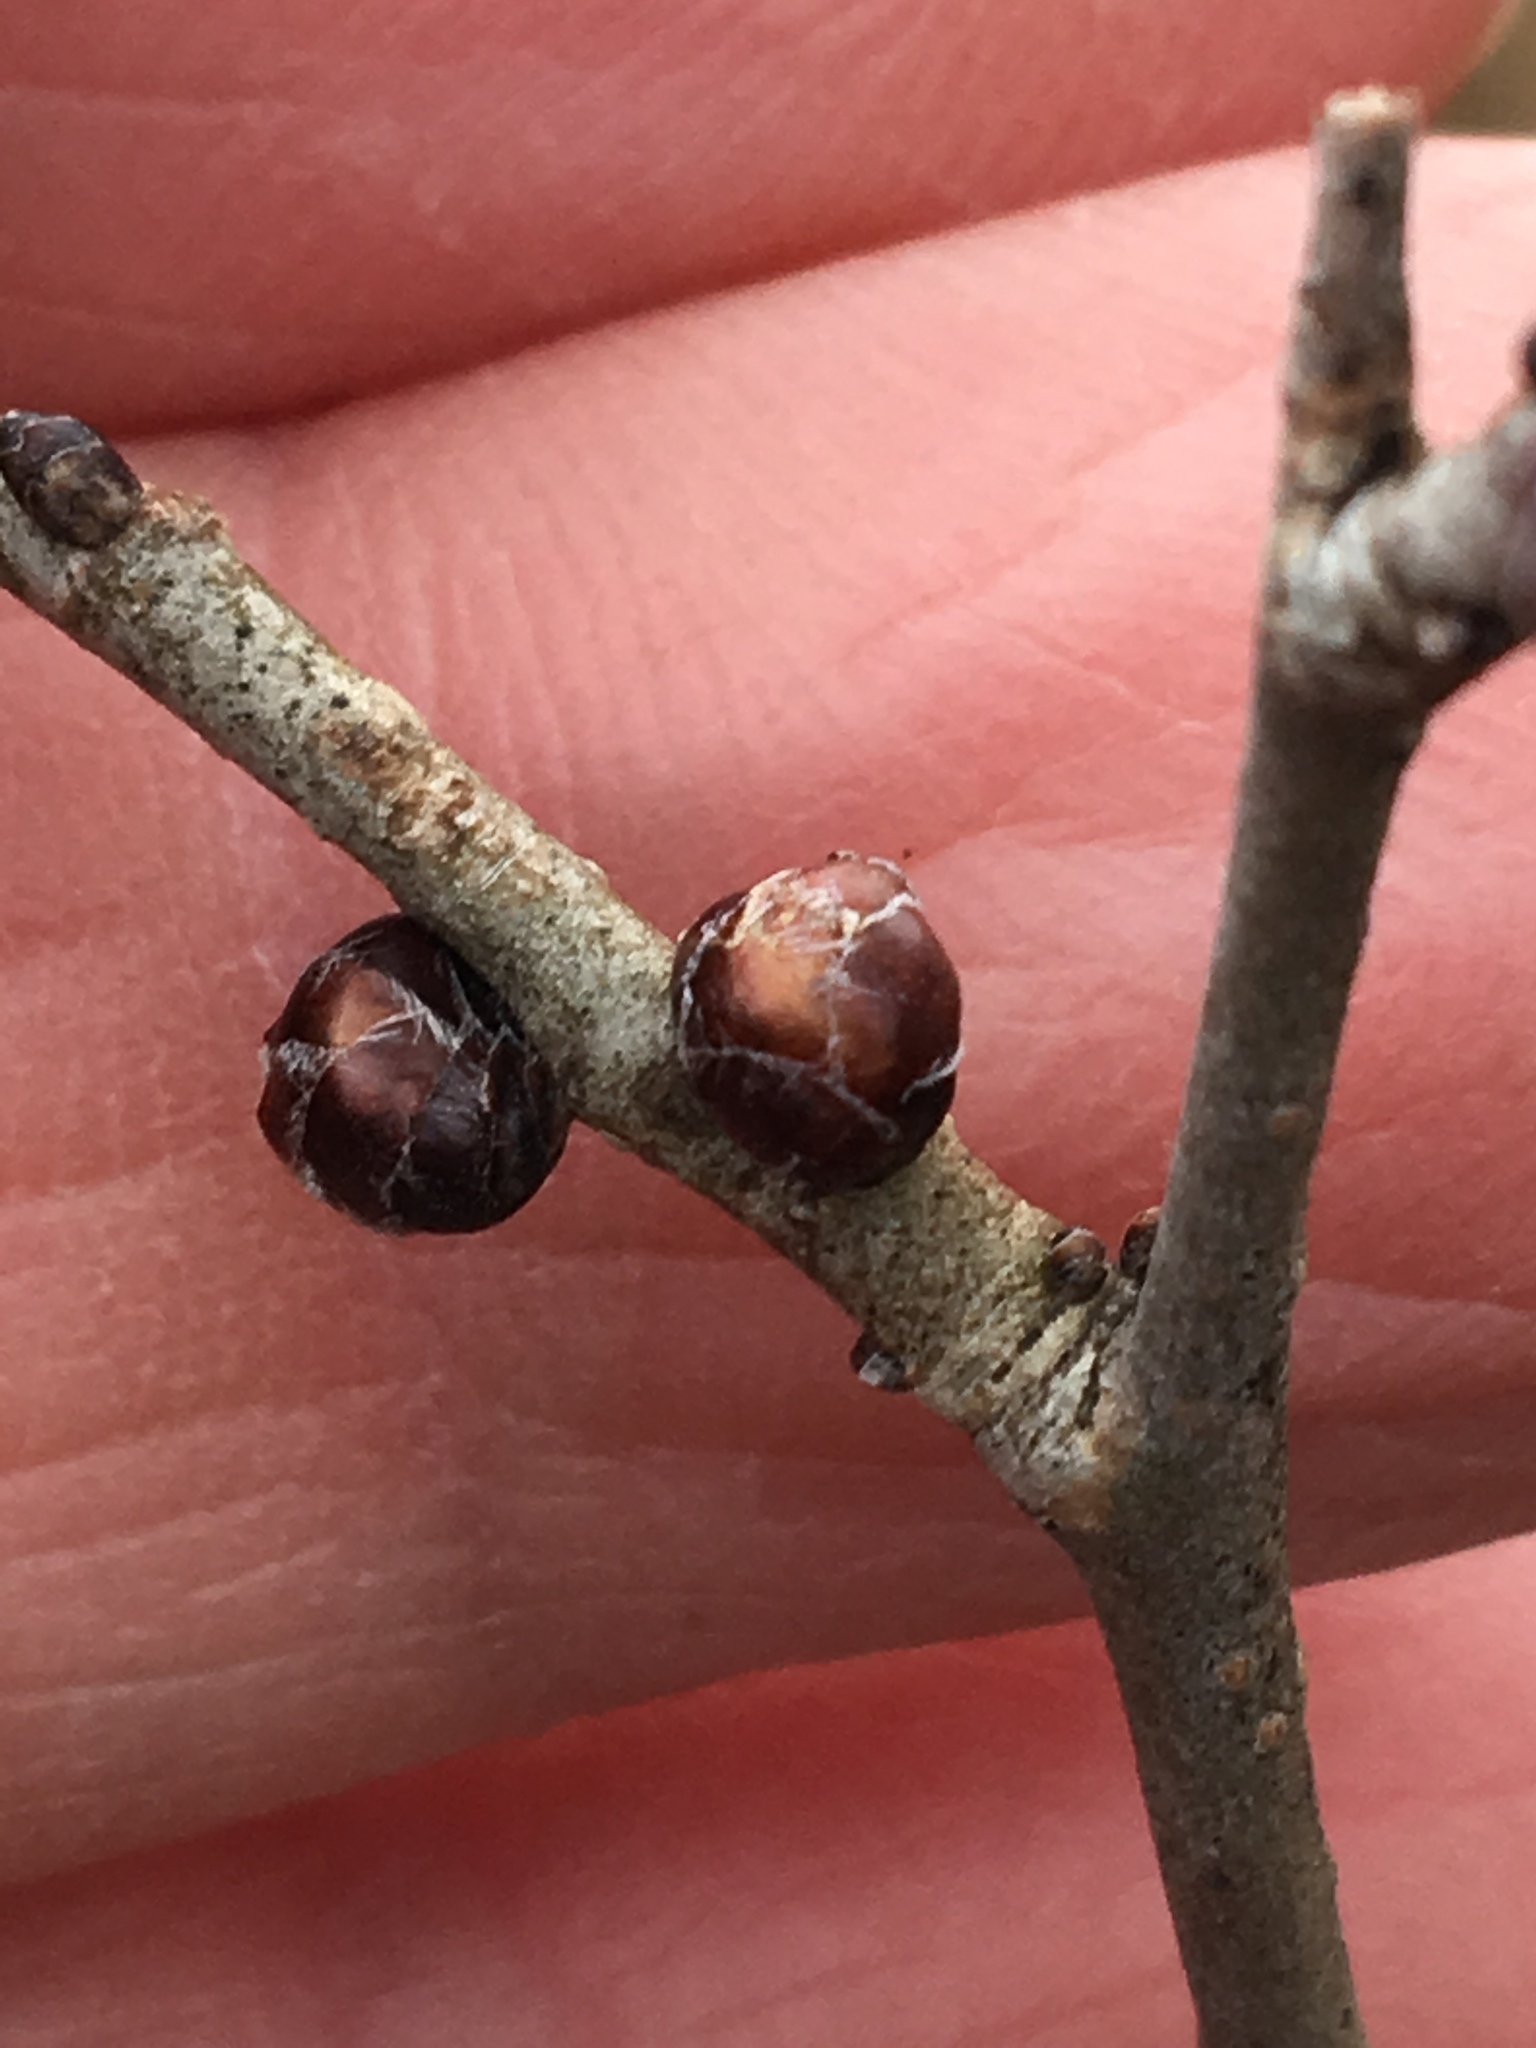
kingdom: Plantae
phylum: Tracheophyta
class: Magnoliopsida
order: Rosales
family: Ulmaceae
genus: Ulmus
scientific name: Ulmus pumila
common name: Siberian elm
